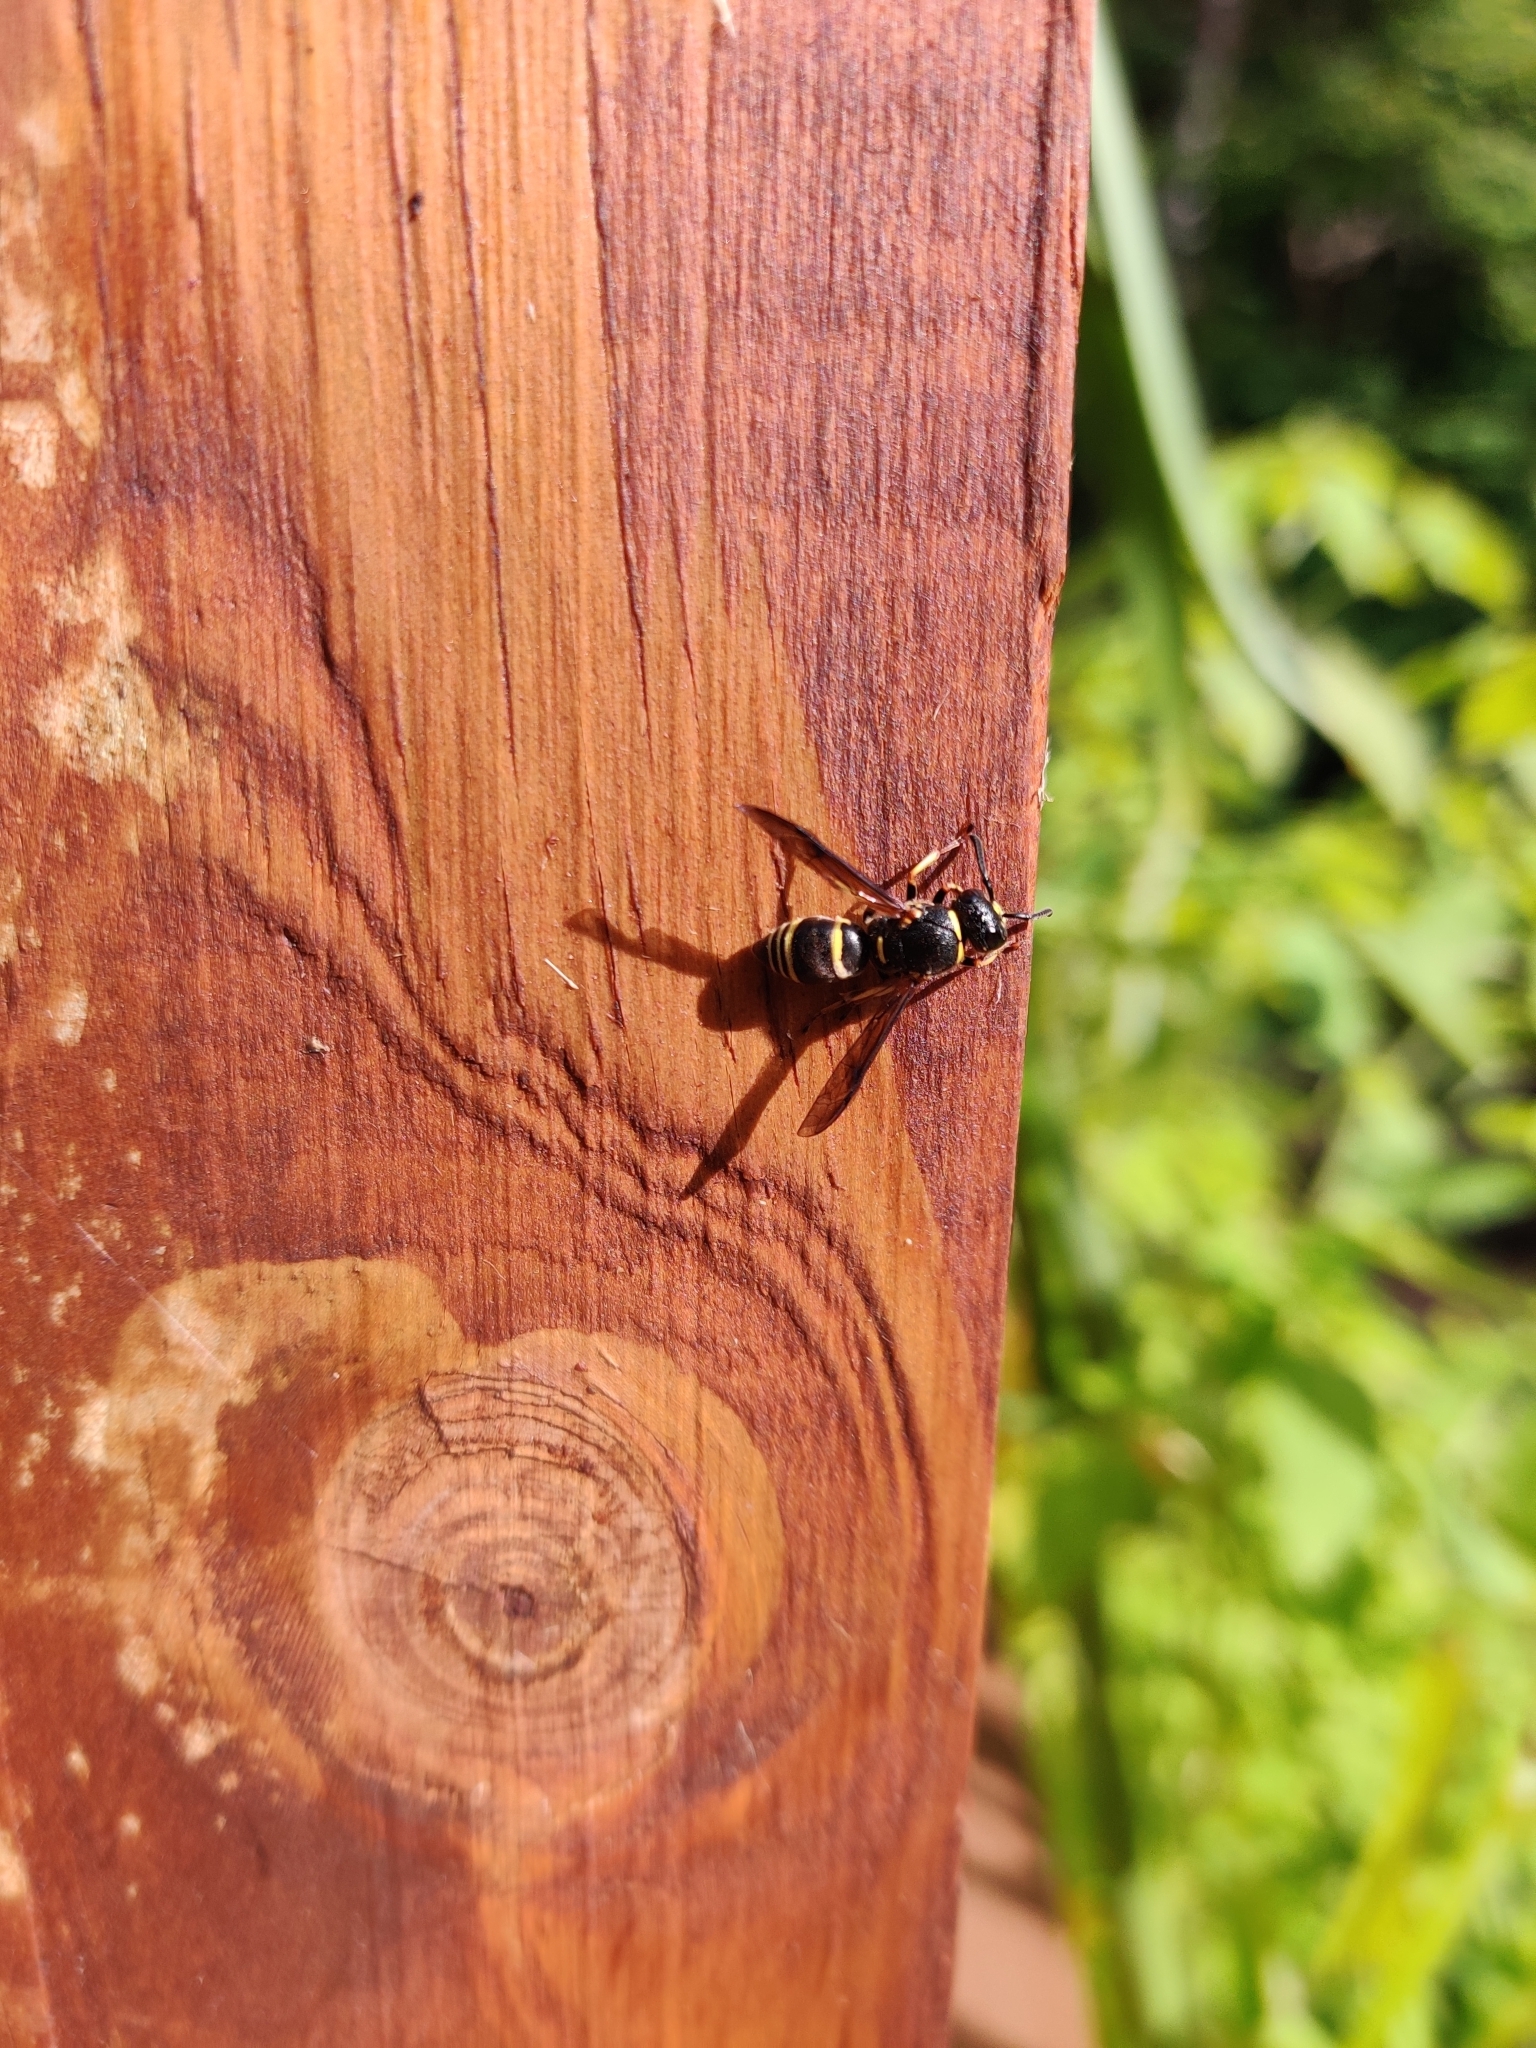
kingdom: Animalia
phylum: Arthropoda
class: Insecta
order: Hymenoptera
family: Eumenidae
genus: Euodynerus
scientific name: Euodynerus foraminatus
